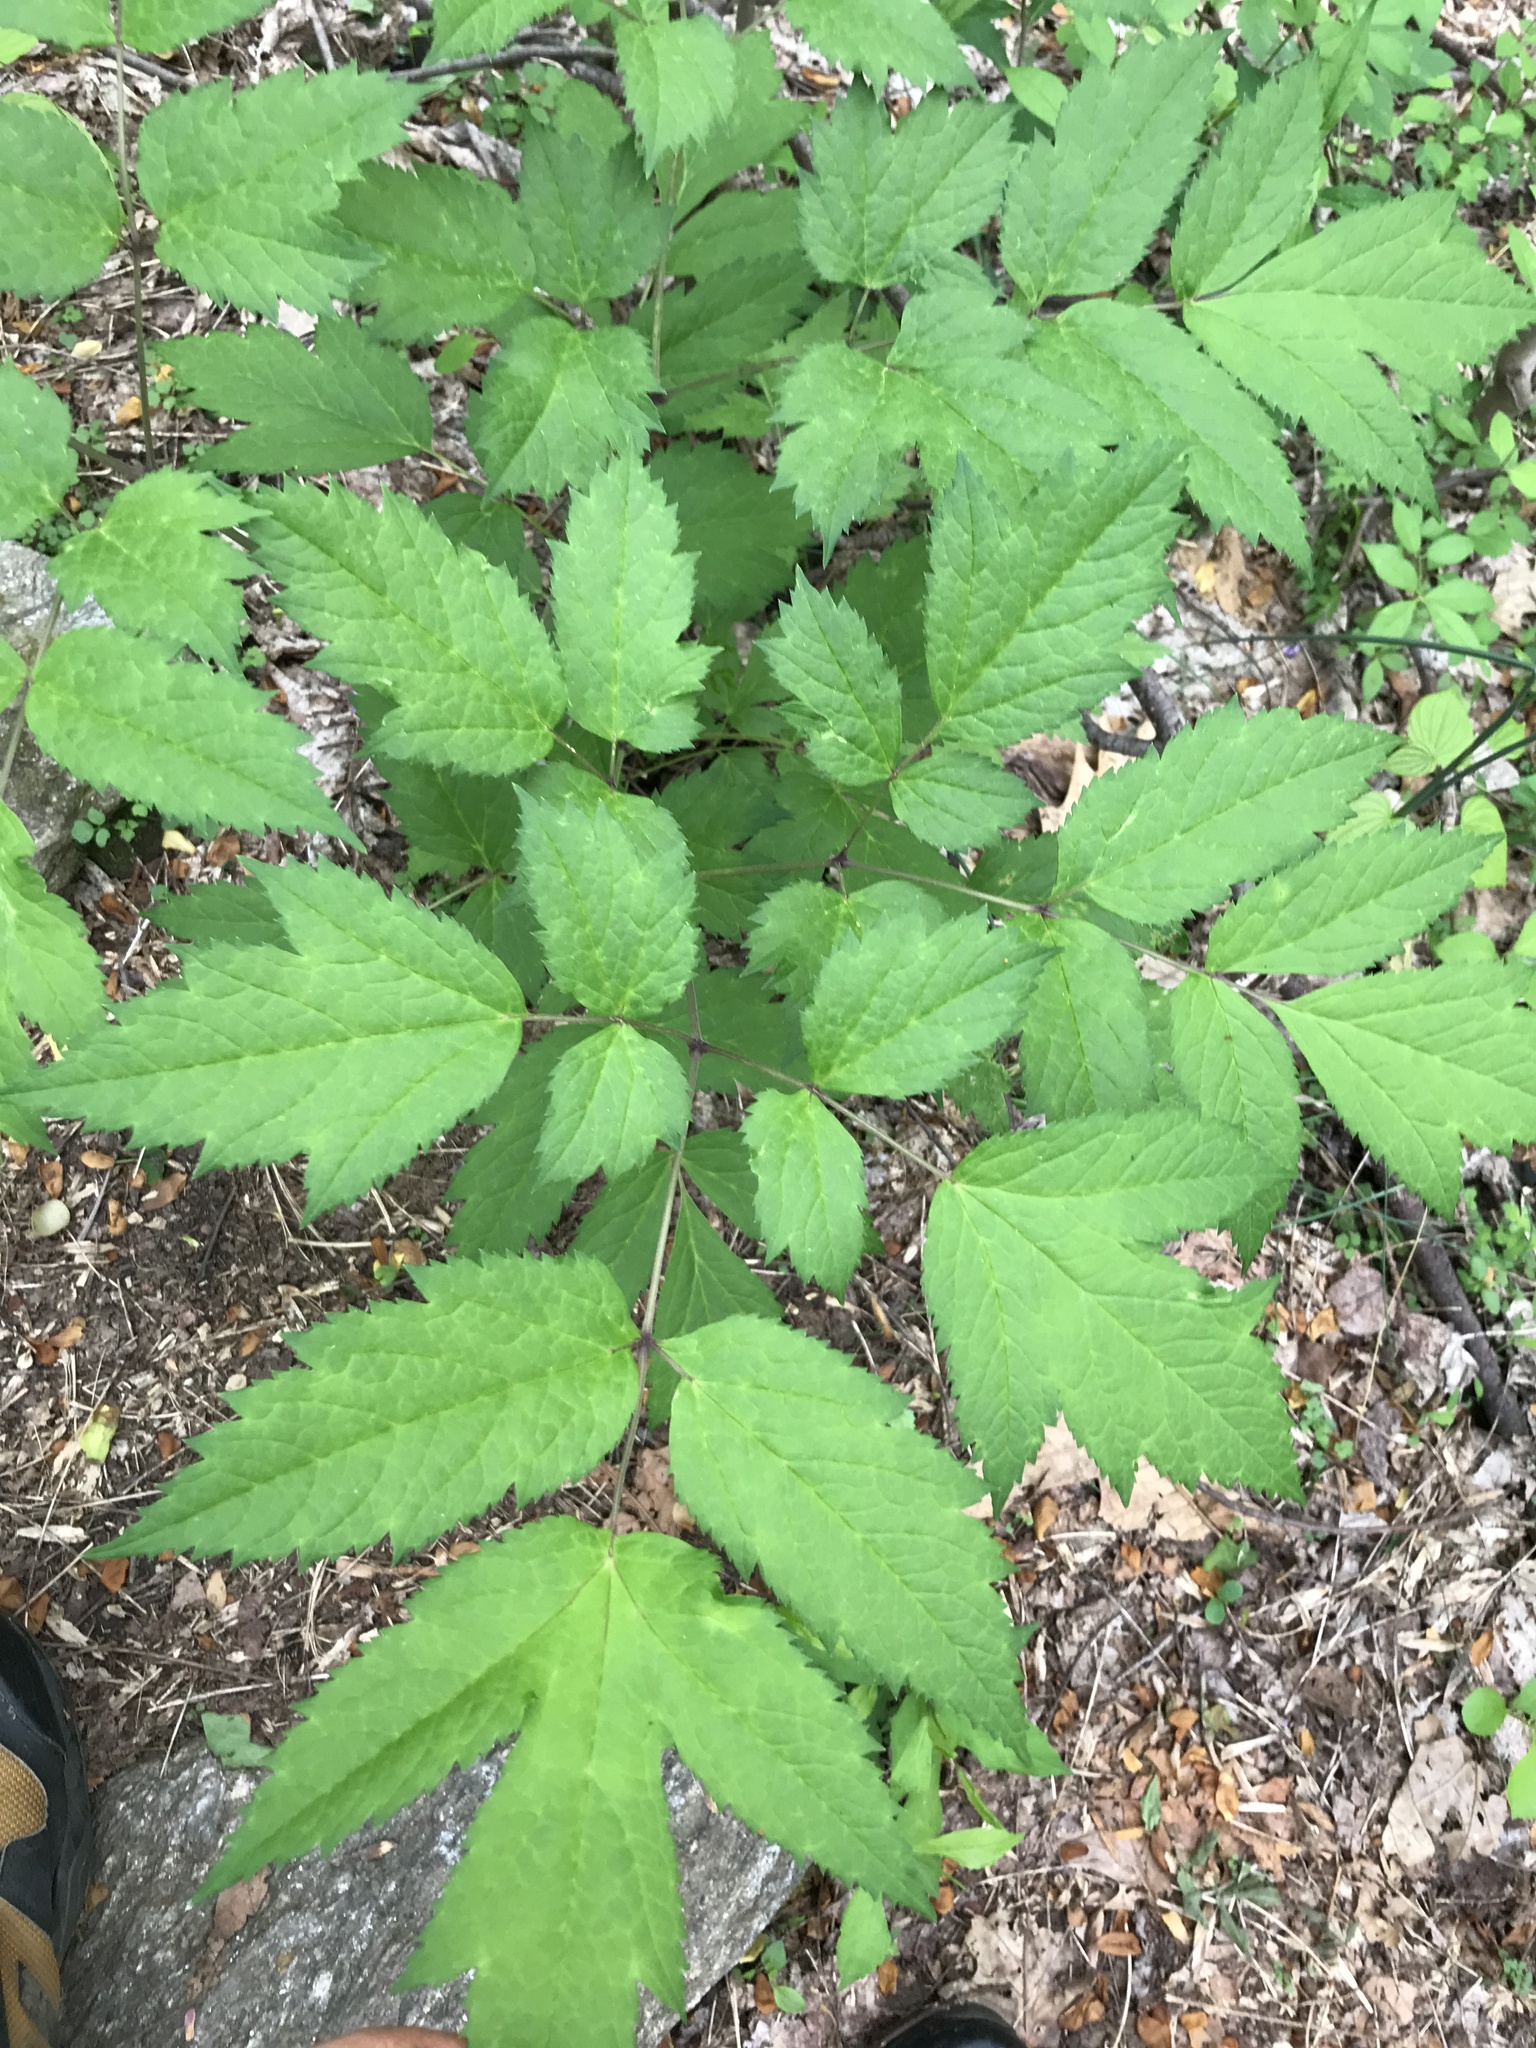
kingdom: Plantae
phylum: Tracheophyta
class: Magnoliopsida
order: Ranunculales
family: Ranunculaceae
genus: Actaea
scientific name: Actaea
